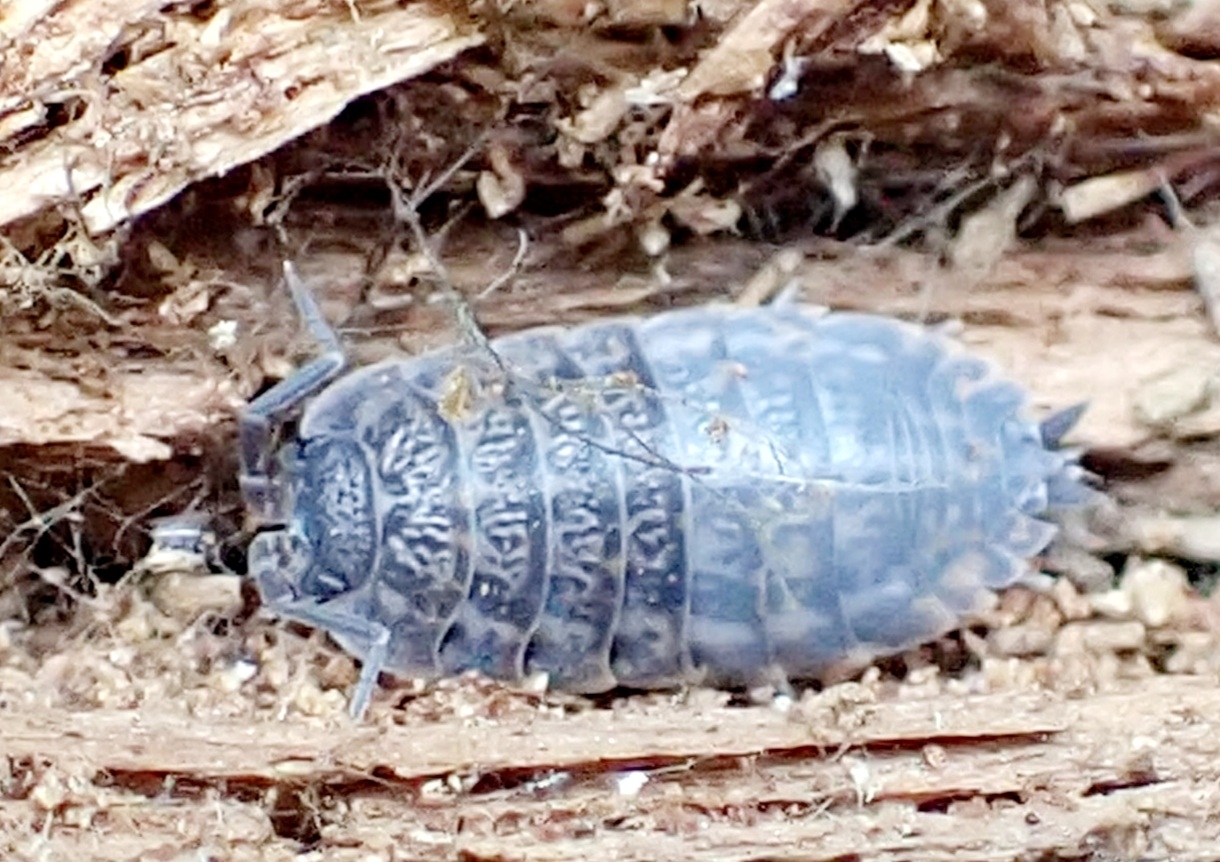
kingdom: Animalia
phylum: Arthropoda
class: Malacostraca
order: Isopoda
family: Trachelipodidae
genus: Trachelipus
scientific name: Trachelipus rathkii
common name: Isopod
